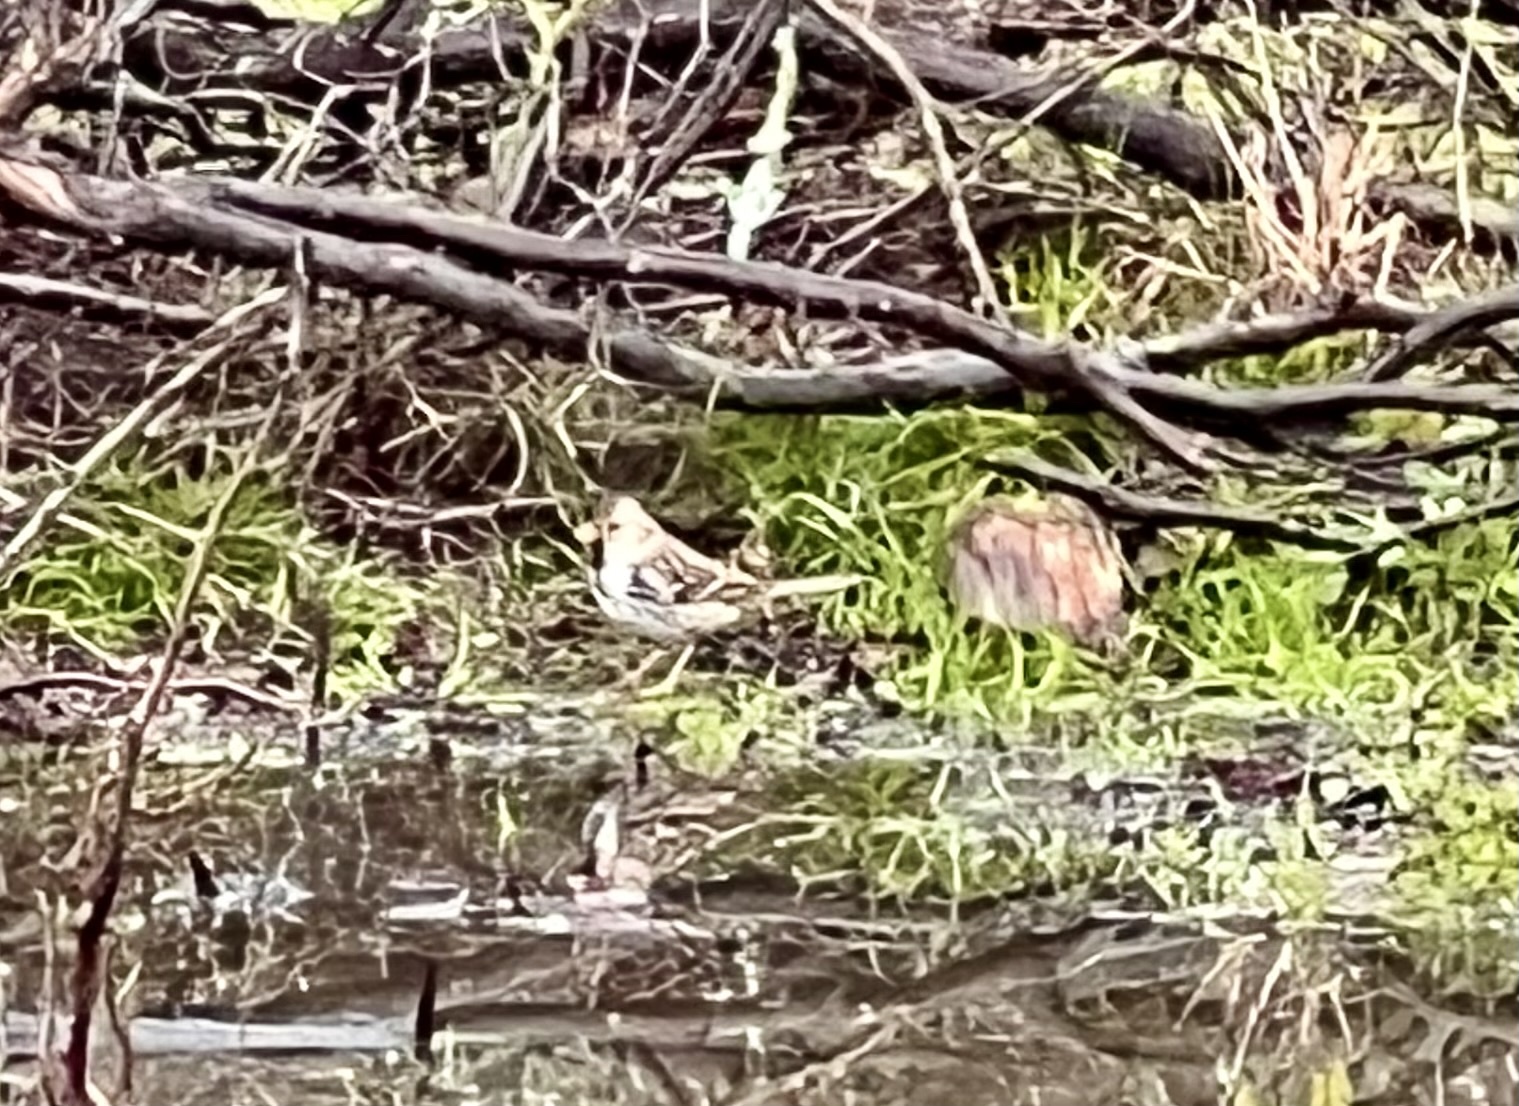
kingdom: Animalia
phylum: Chordata
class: Aves
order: Passeriformes
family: Passerellidae
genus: Zonotrichia
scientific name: Zonotrichia querula
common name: Harris's sparrow
